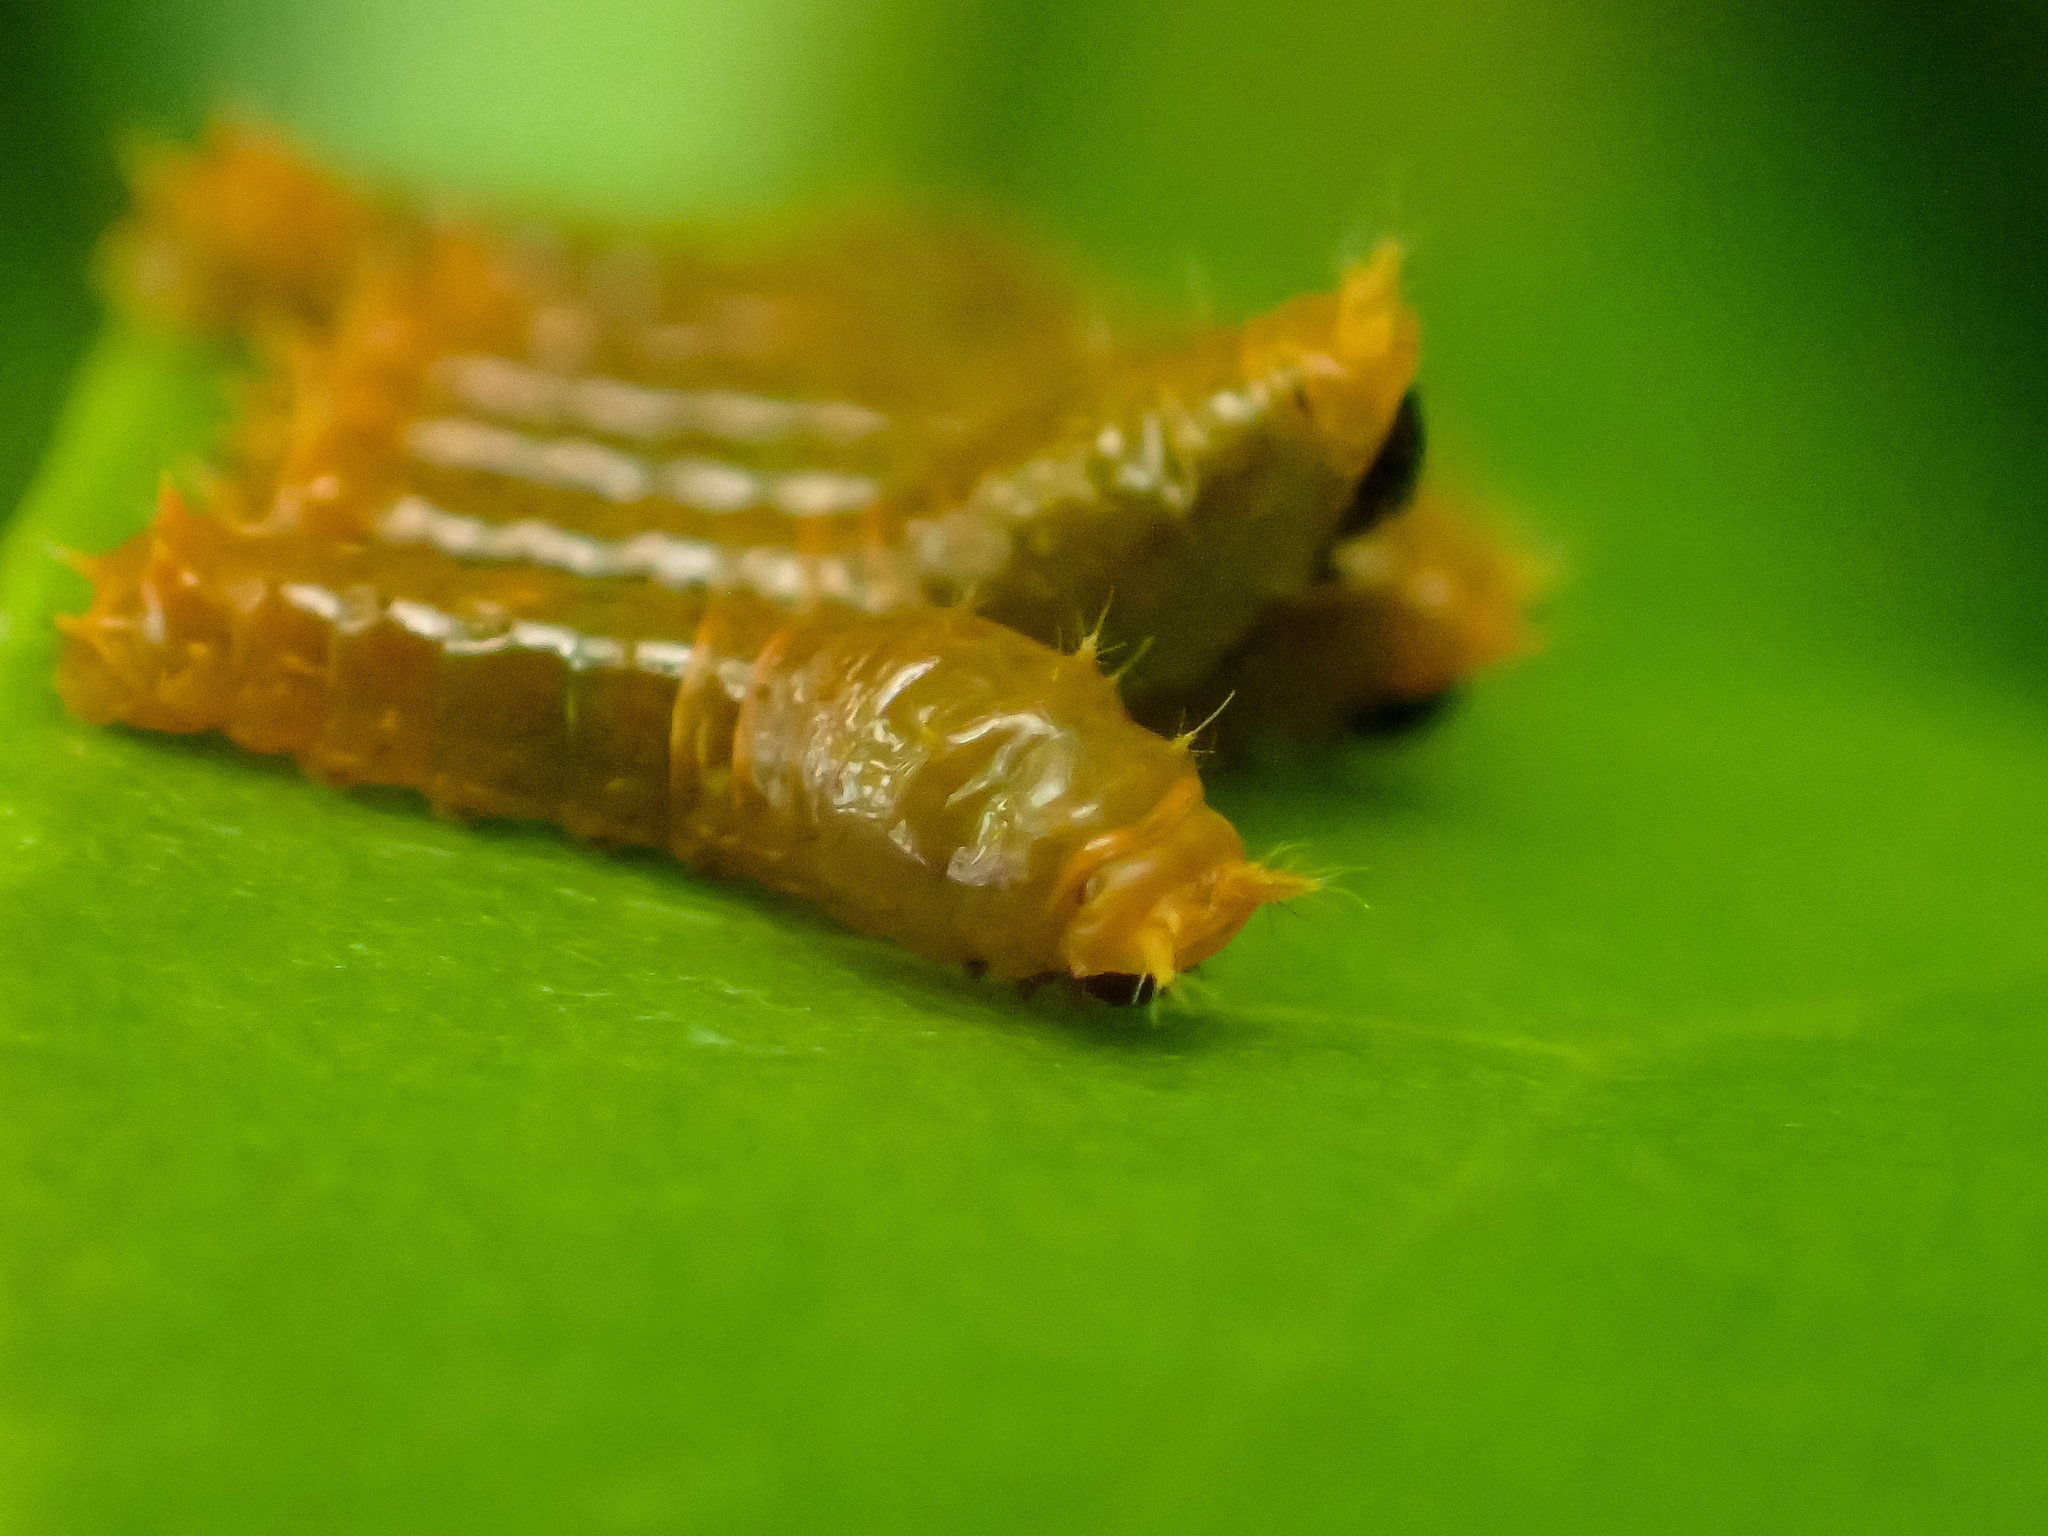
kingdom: Animalia
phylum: Arthropoda
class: Insecta
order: Lepidoptera
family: Papilionidae
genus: Papilio
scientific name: Papilio demolion
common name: Banded swallowtail
